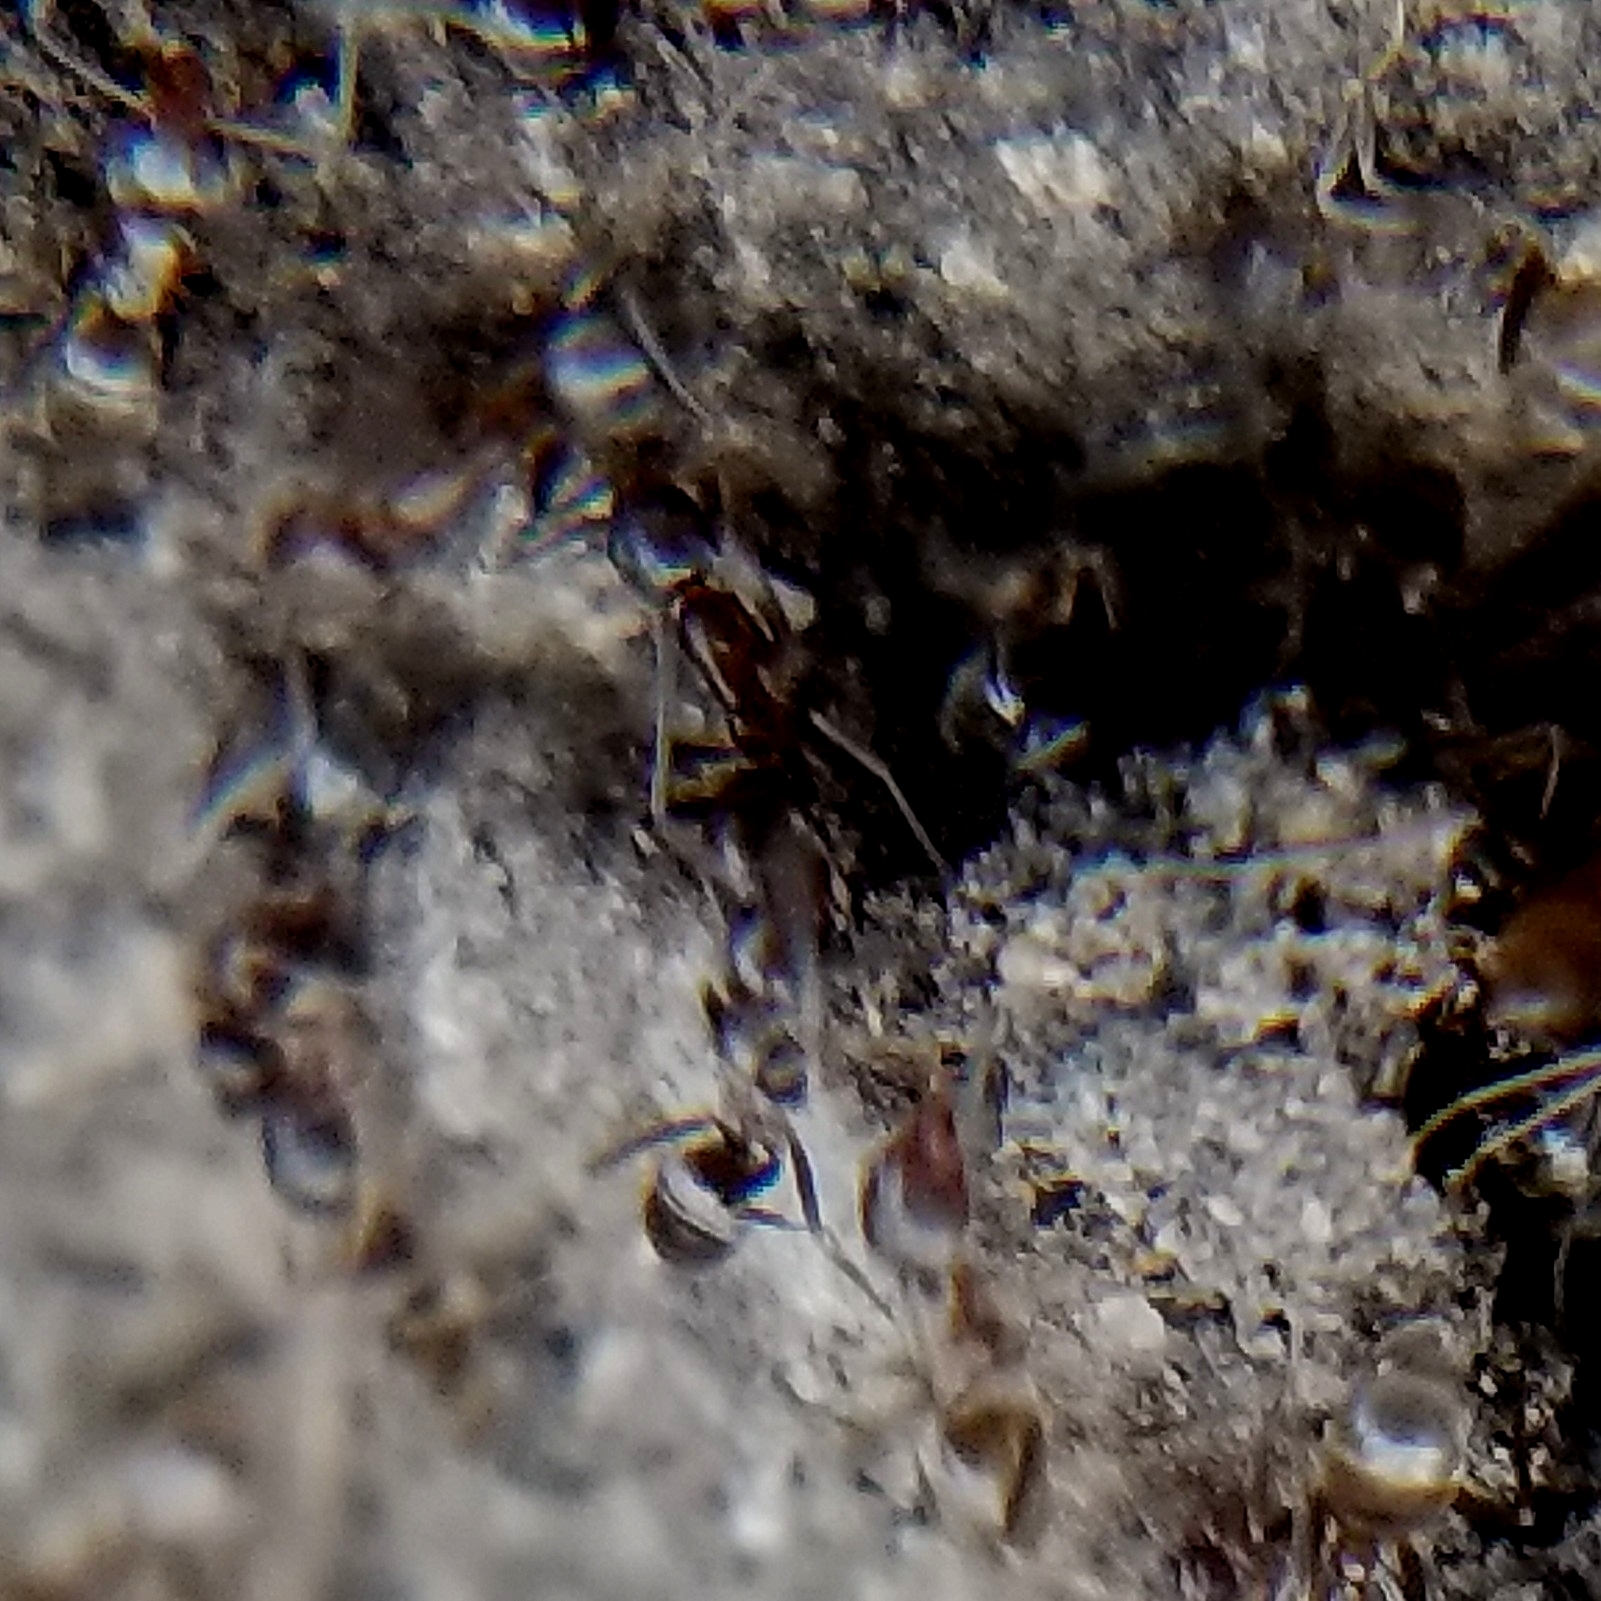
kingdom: Animalia
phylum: Arthropoda
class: Insecta
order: Hymenoptera
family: Formicidae
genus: Linepithema
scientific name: Linepithema humile
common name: Argentine ant
